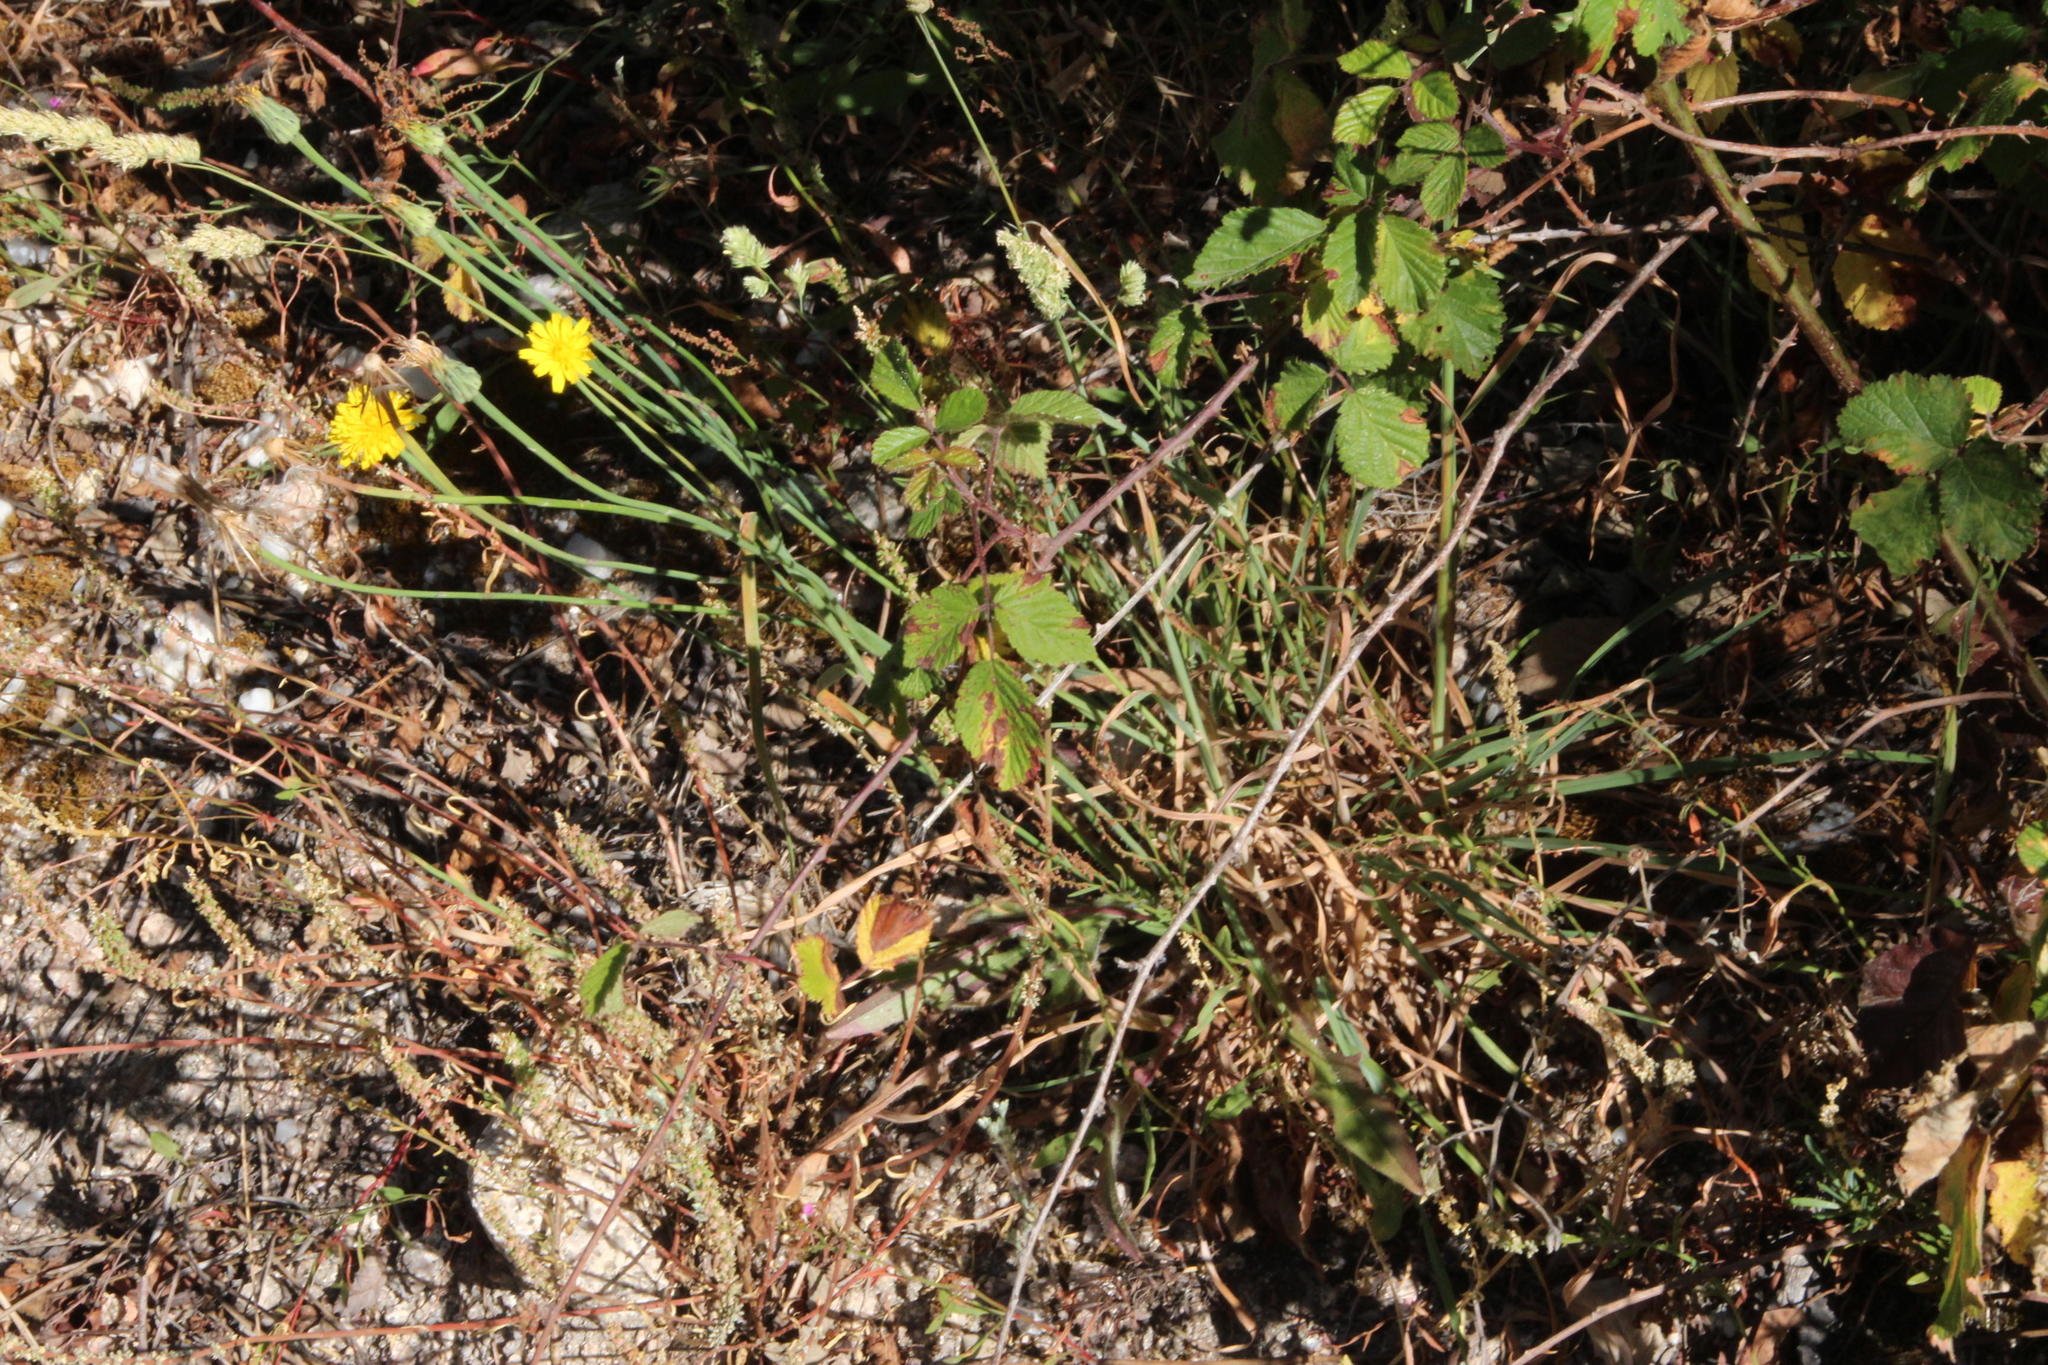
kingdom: Plantae
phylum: Tracheophyta
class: Magnoliopsida
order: Asterales
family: Asteraceae
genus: Hypochaeris
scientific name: Hypochaeris radicata
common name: Flatweed
